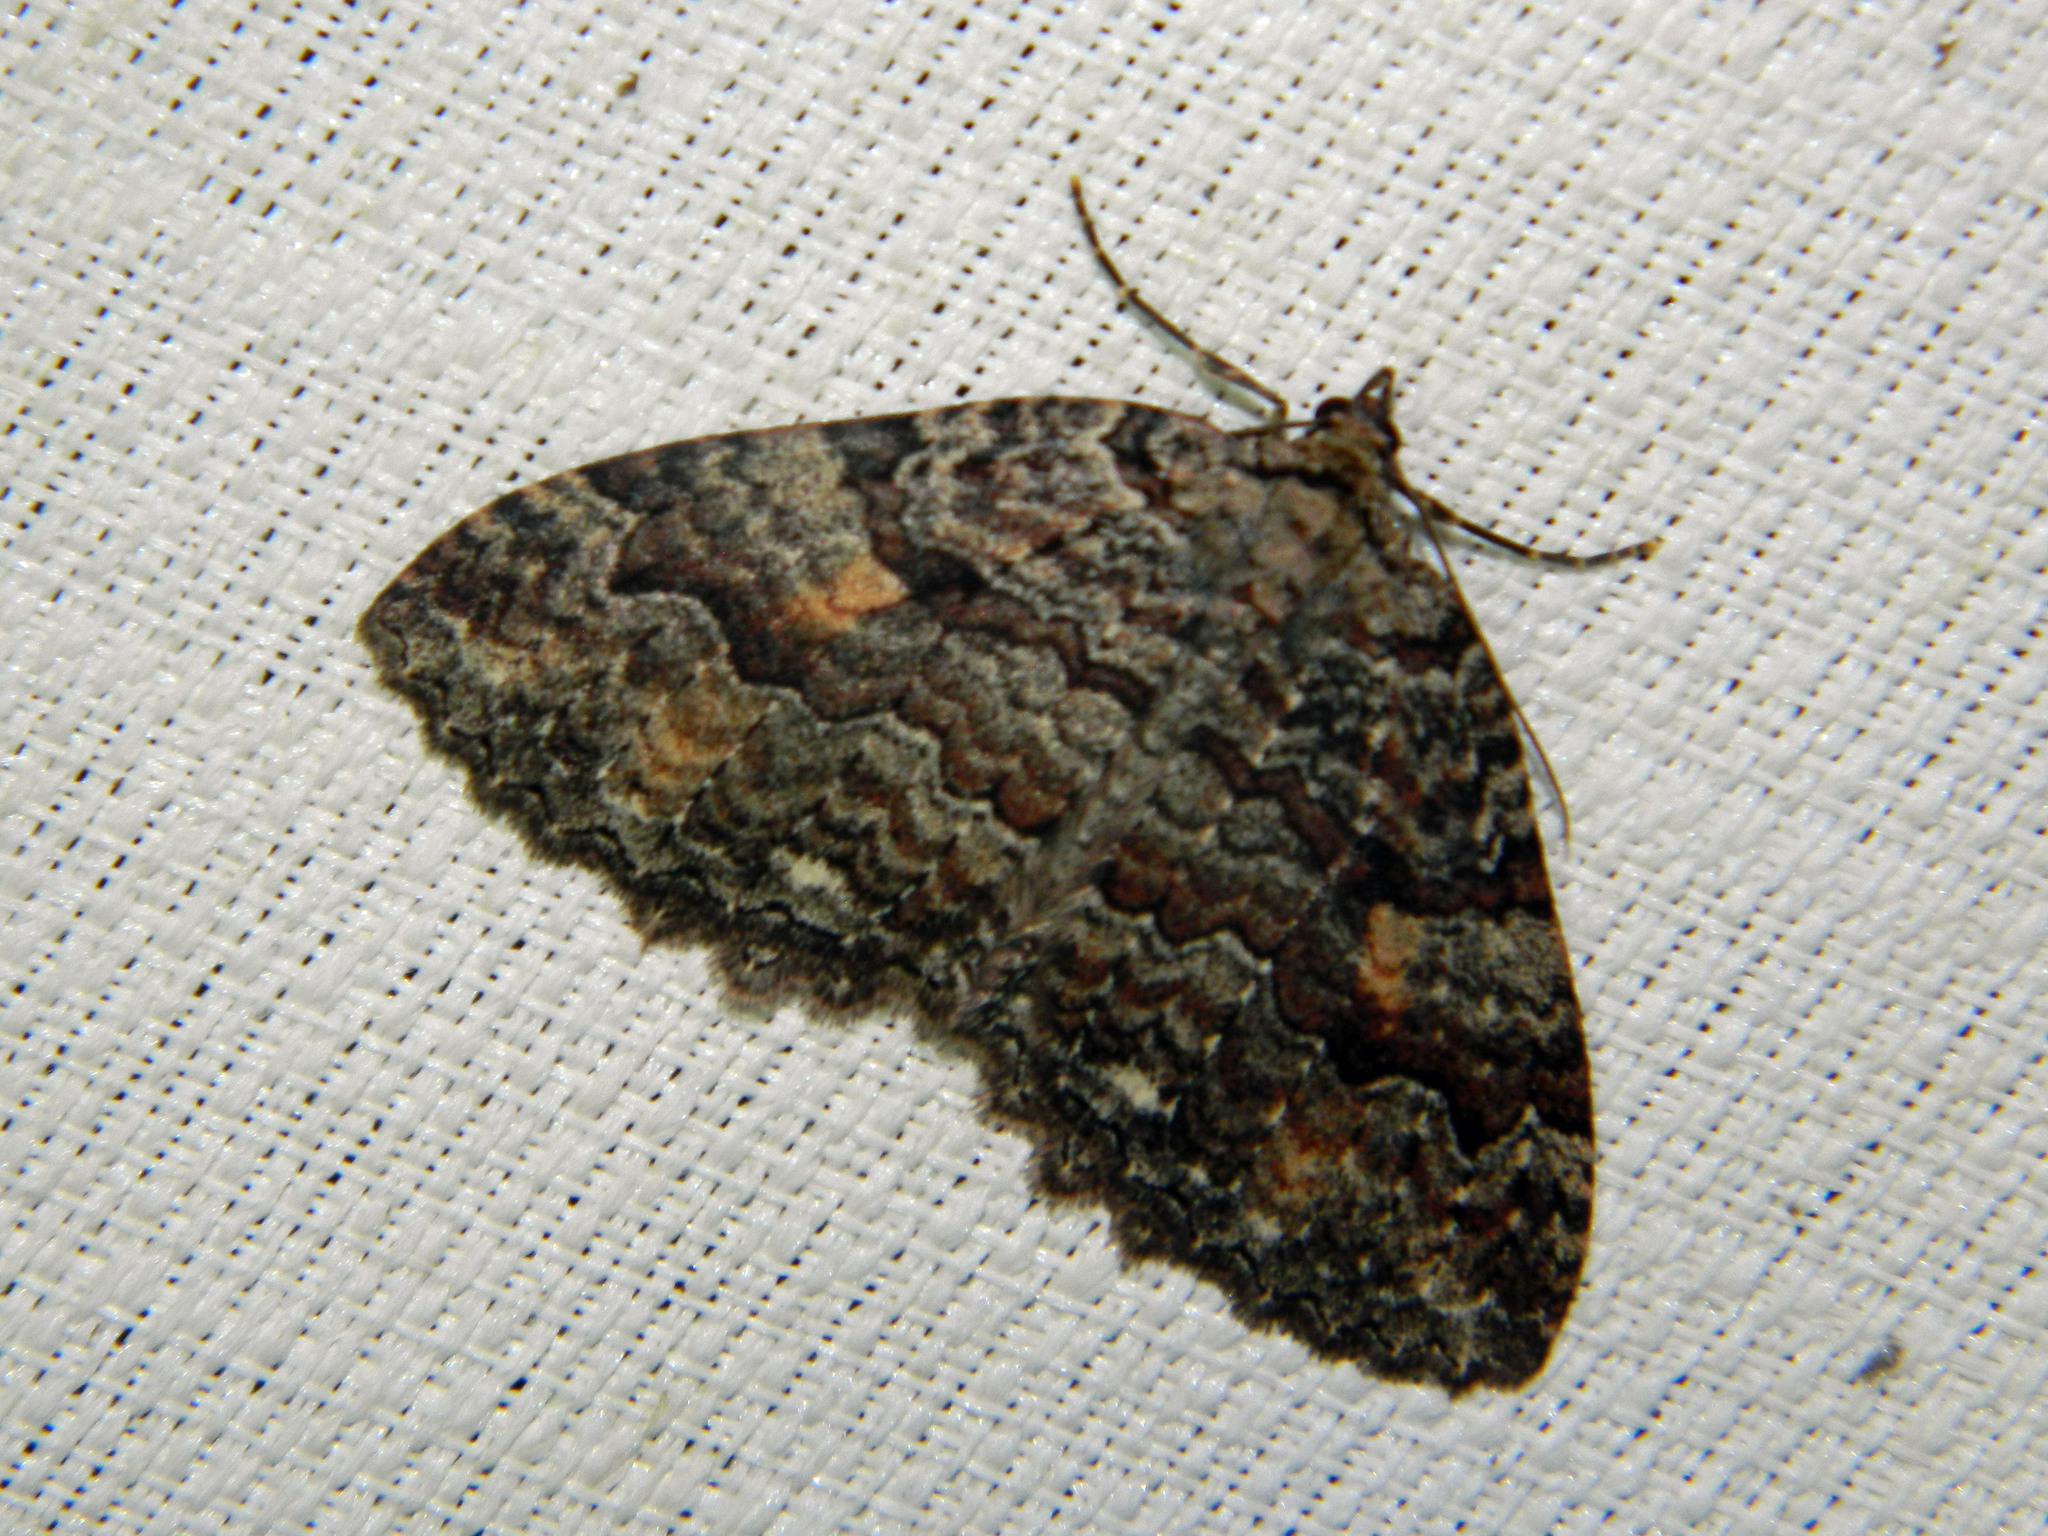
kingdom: Animalia
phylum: Arthropoda
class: Insecta
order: Lepidoptera
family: Geometridae
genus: Triphosa
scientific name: Triphosa haesitata
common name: Tissue moth
